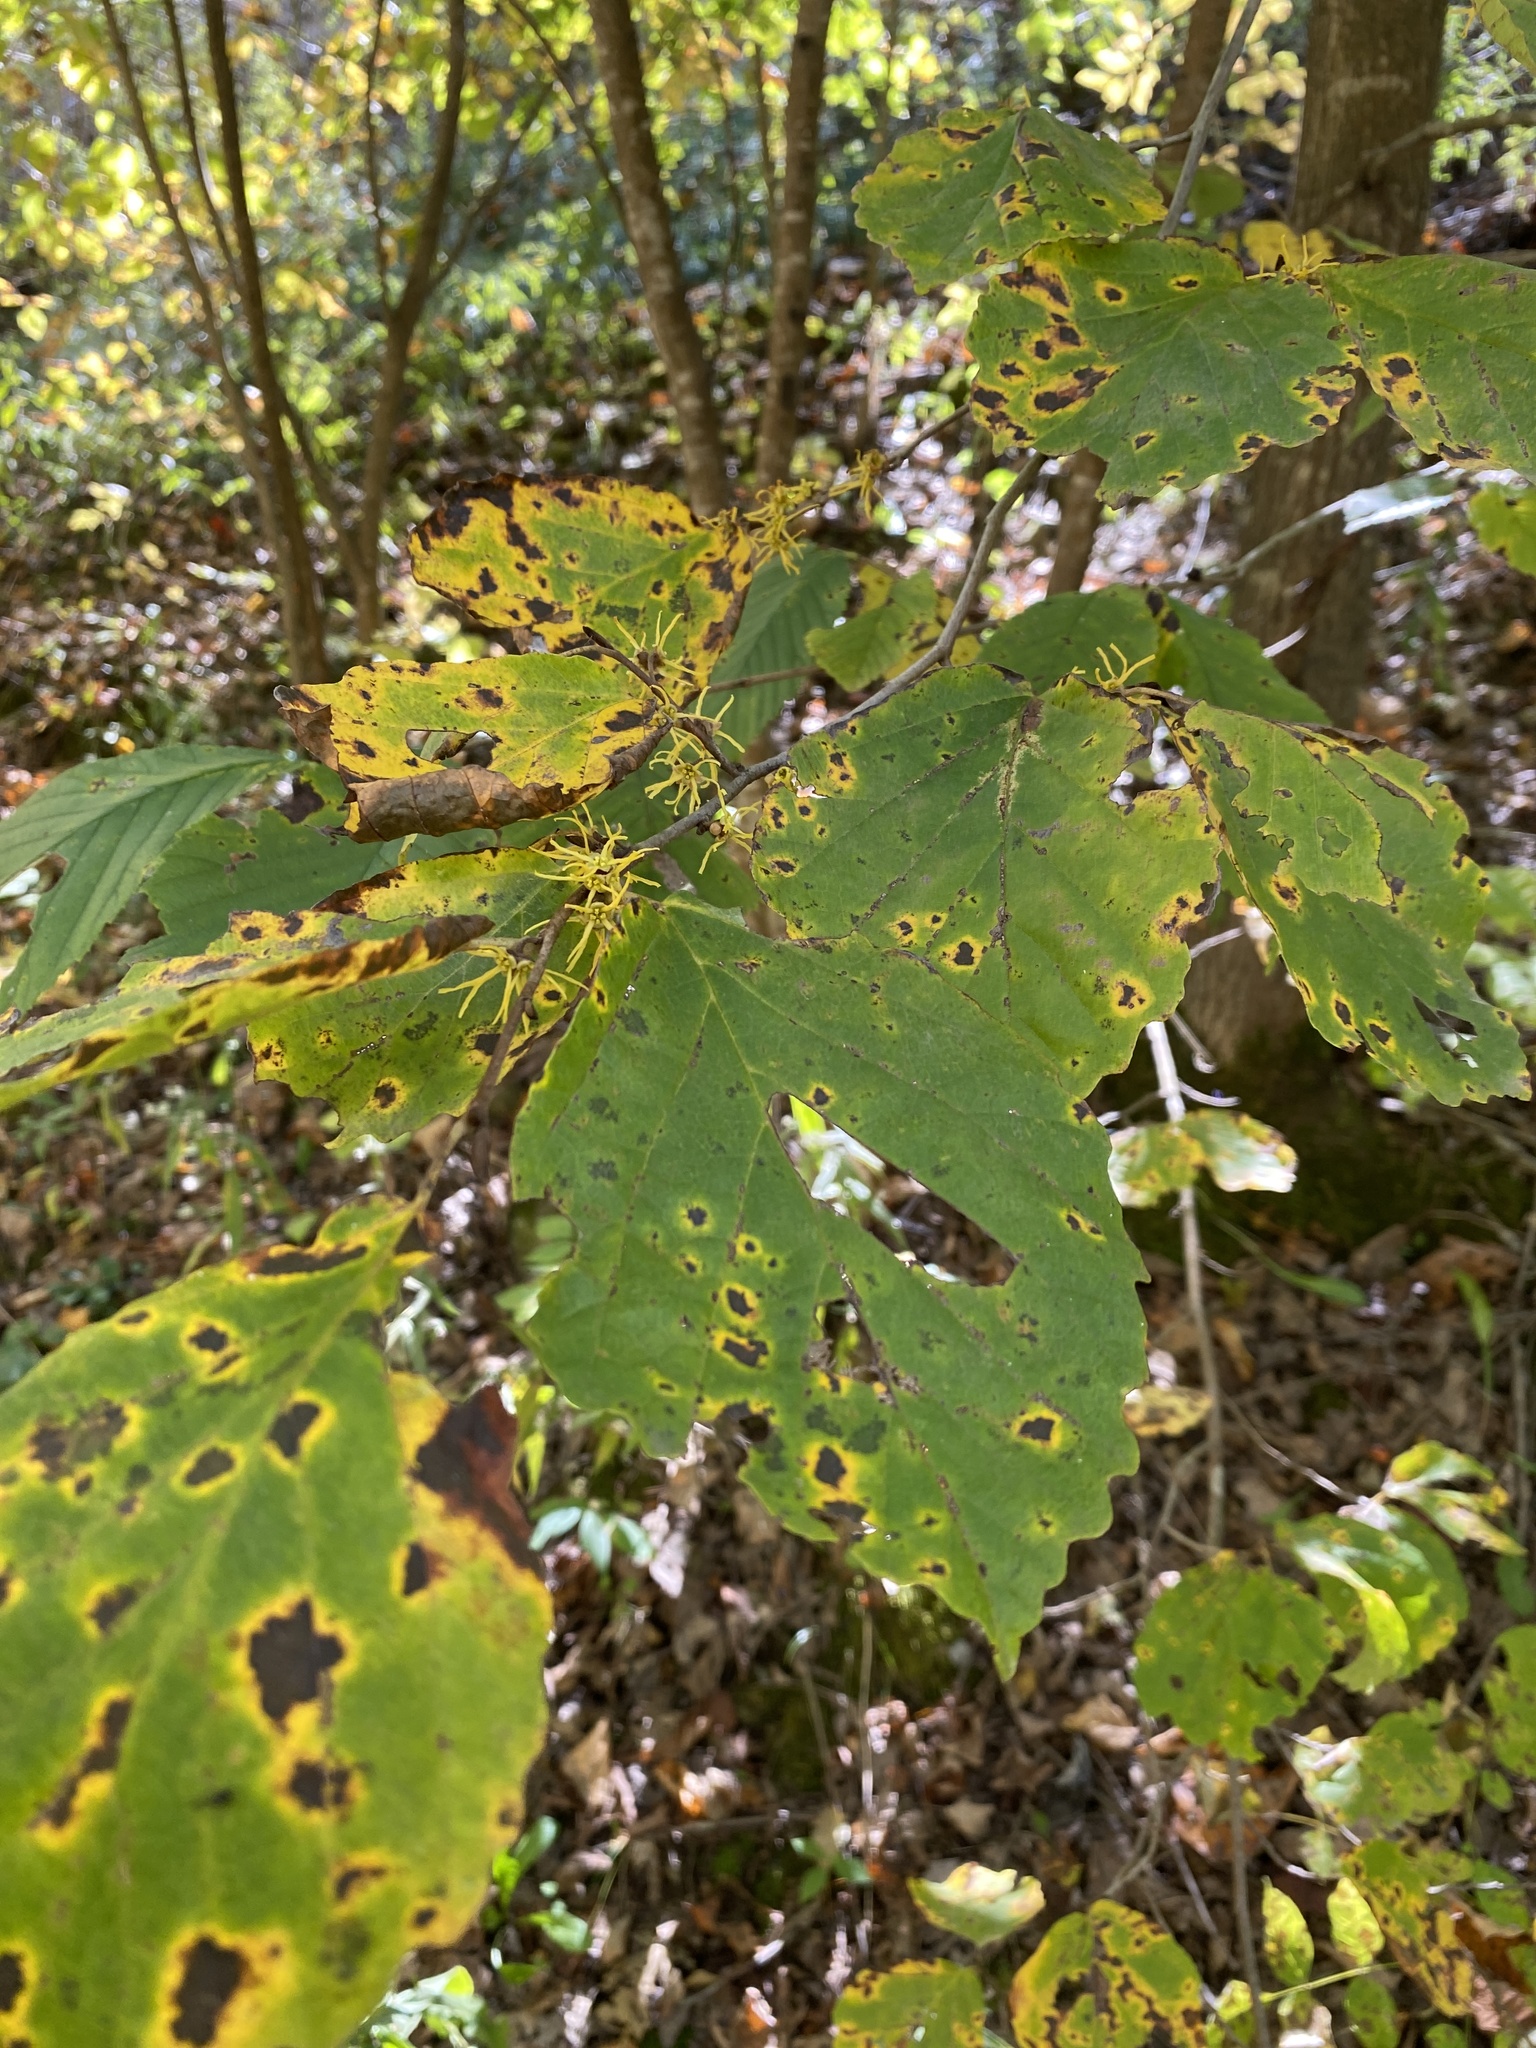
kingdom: Plantae
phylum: Tracheophyta
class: Magnoliopsida
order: Saxifragales
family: Hamamelidaceae
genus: Hamamelis
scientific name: Hamamelis virginiana
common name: Witch-hazel
